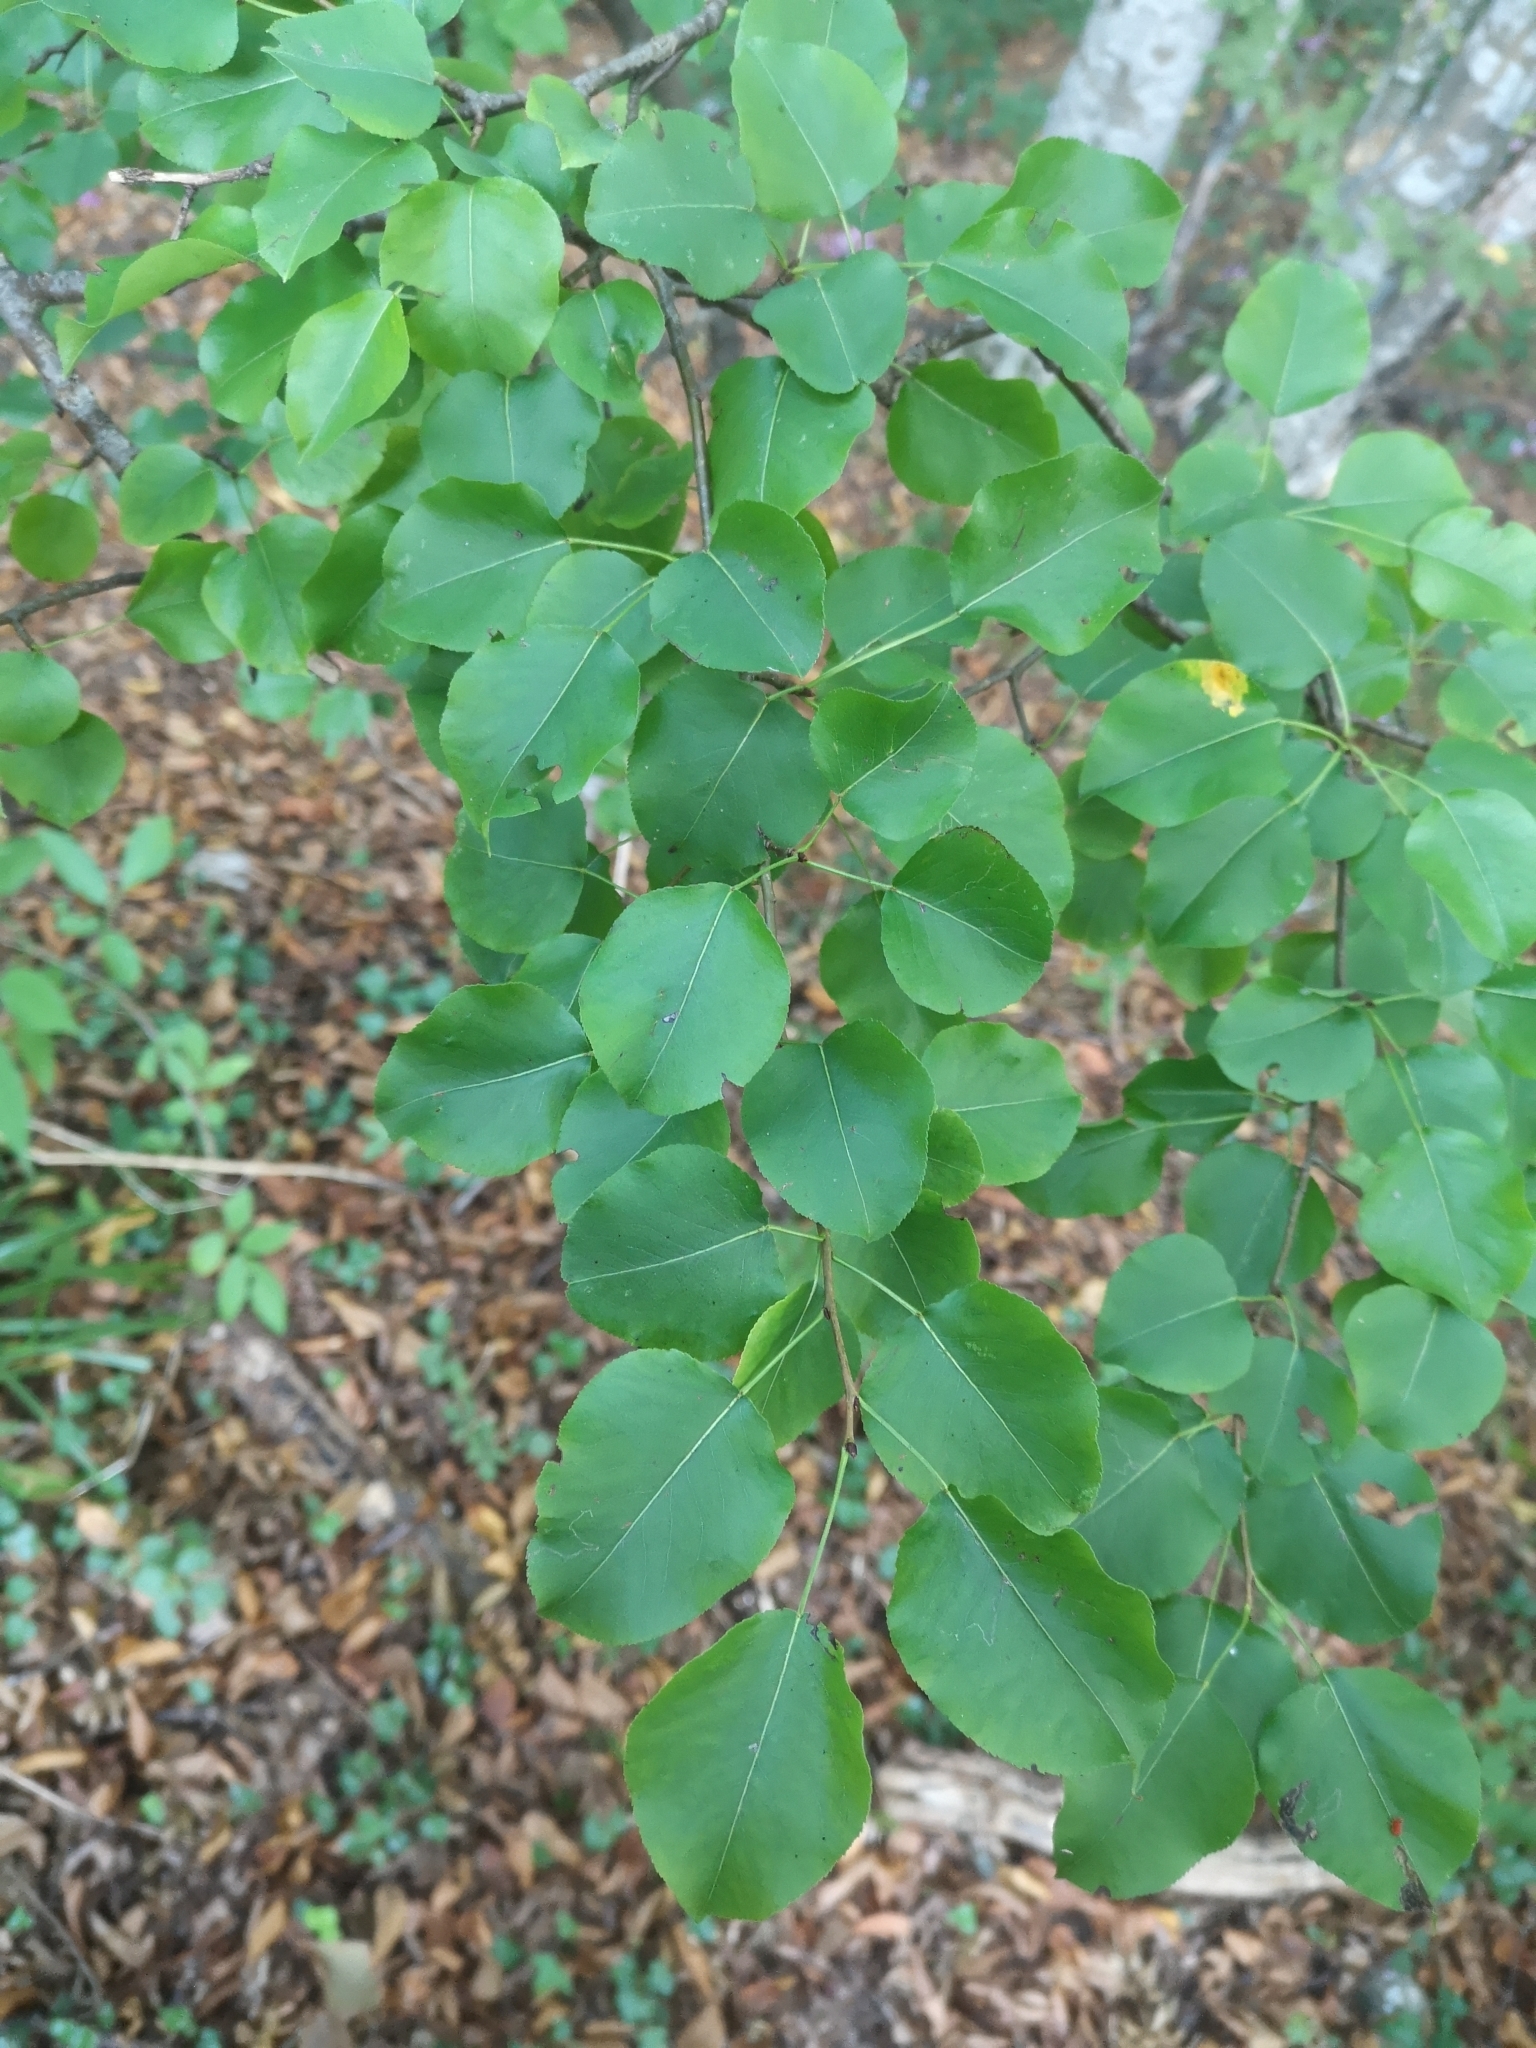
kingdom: Plantae
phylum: Tracheophyta
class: Magnoliopsida
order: Rosales
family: Rosaceae
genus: Prunus
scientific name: Prunus mahaleb
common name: Mahaleb cherry
